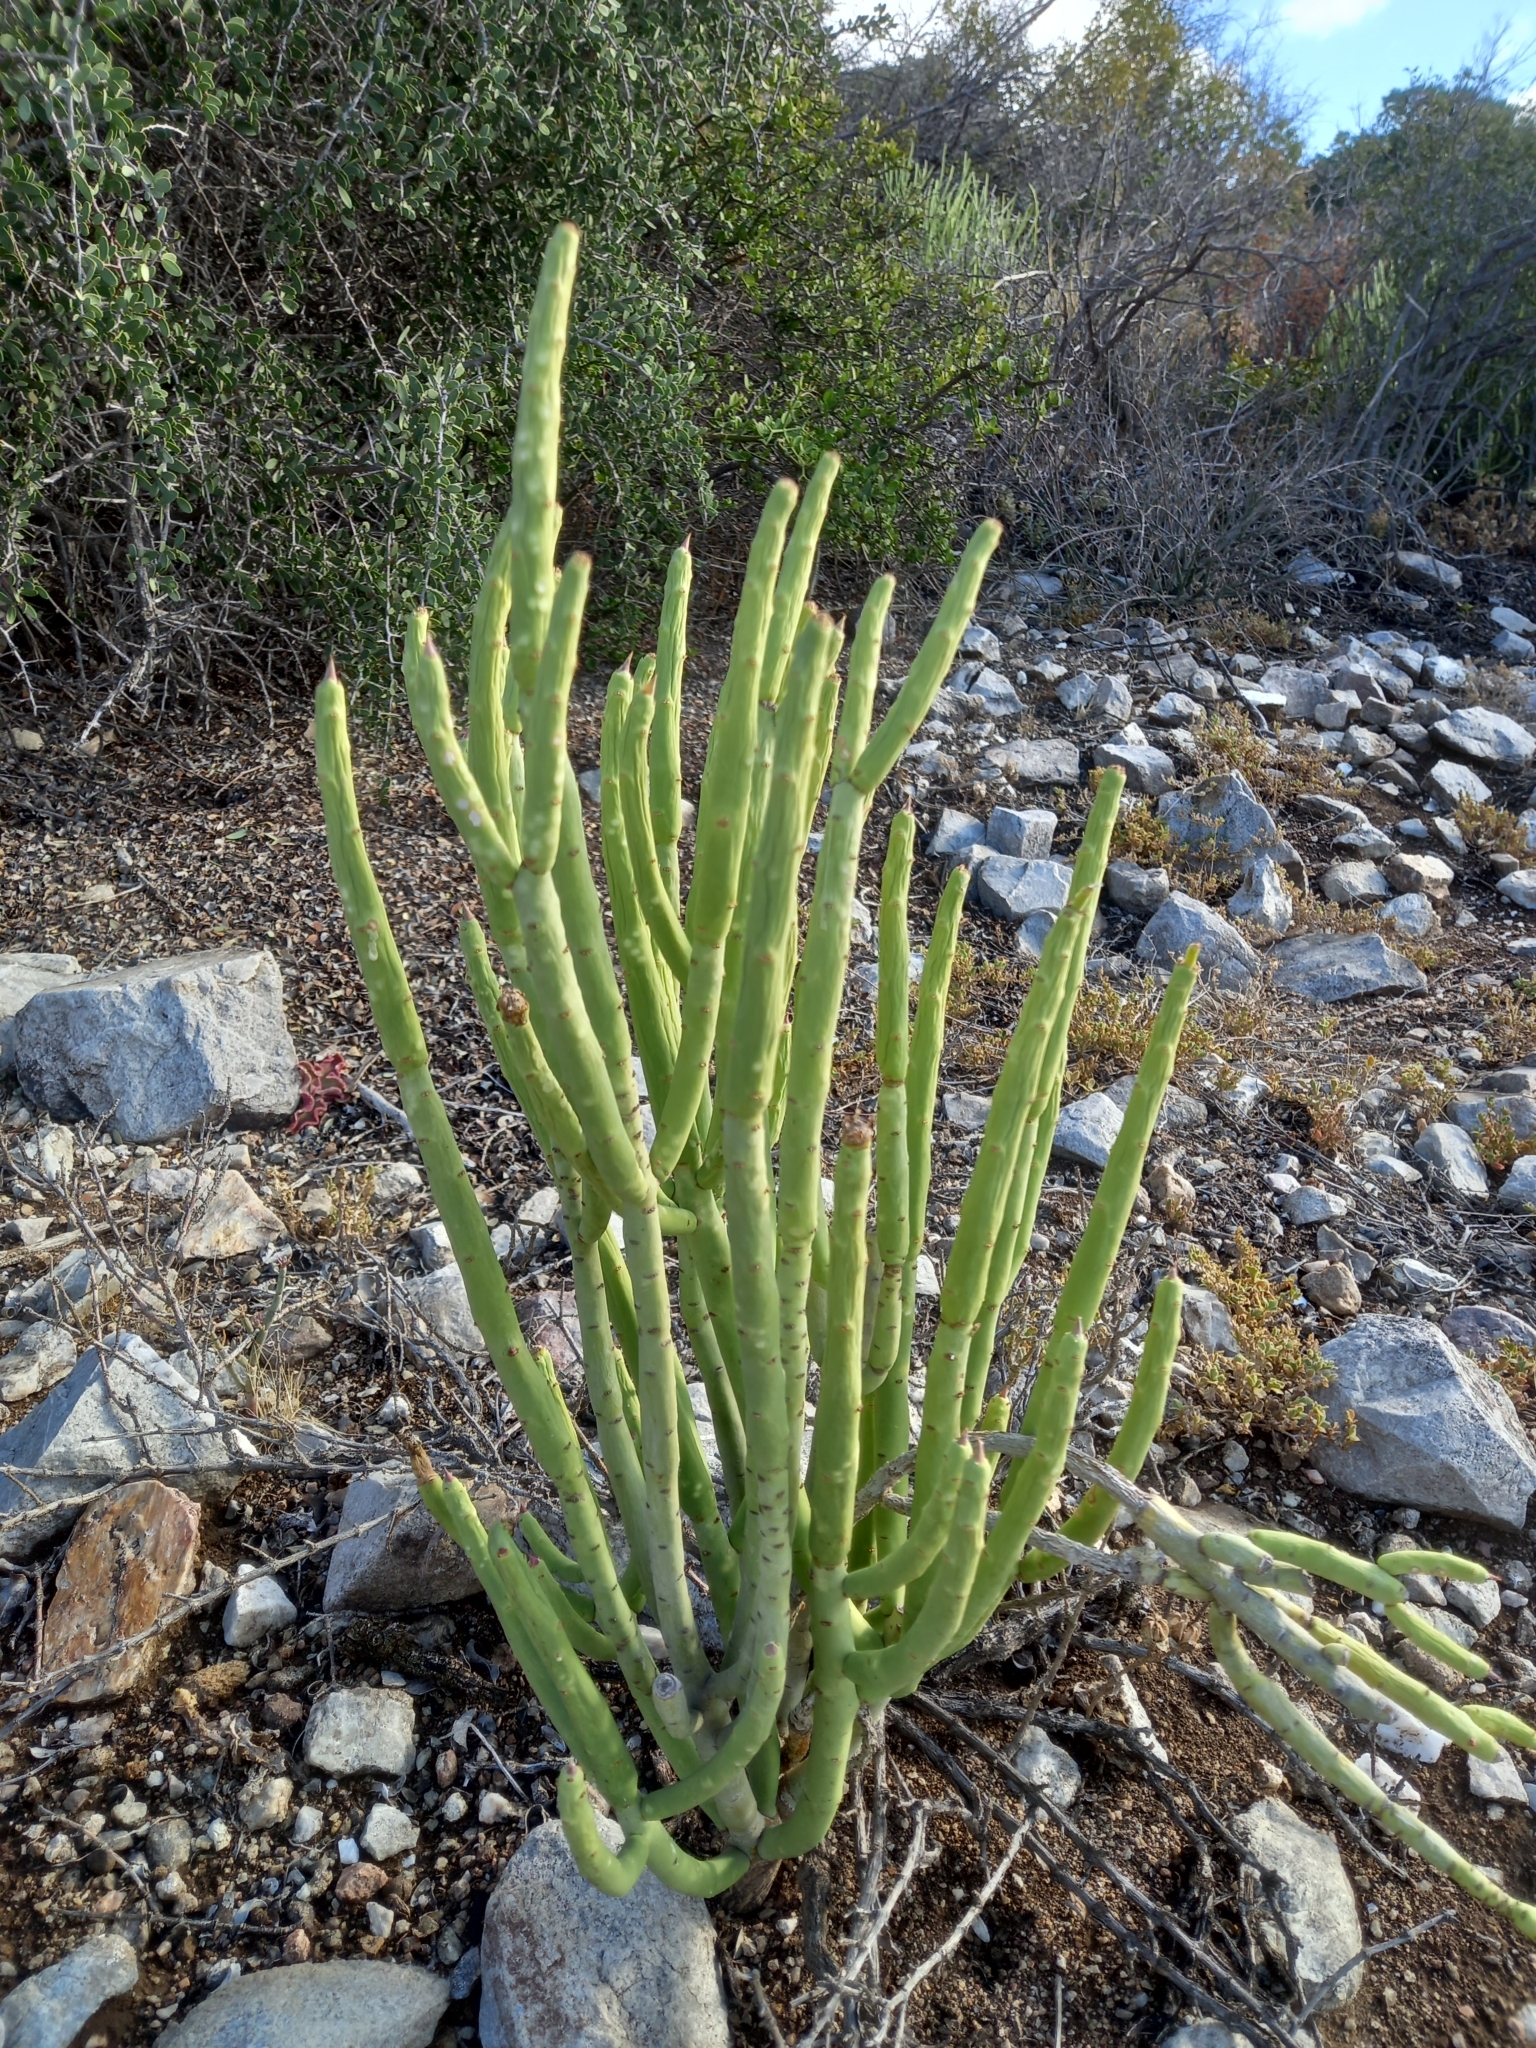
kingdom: Plantae
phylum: Tracheophyta
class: Magnoliopsida
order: Malpighiales
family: Euphorbiaceae
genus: Euphorbia
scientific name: Euphorbia mauritanica
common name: Jackal's-food
